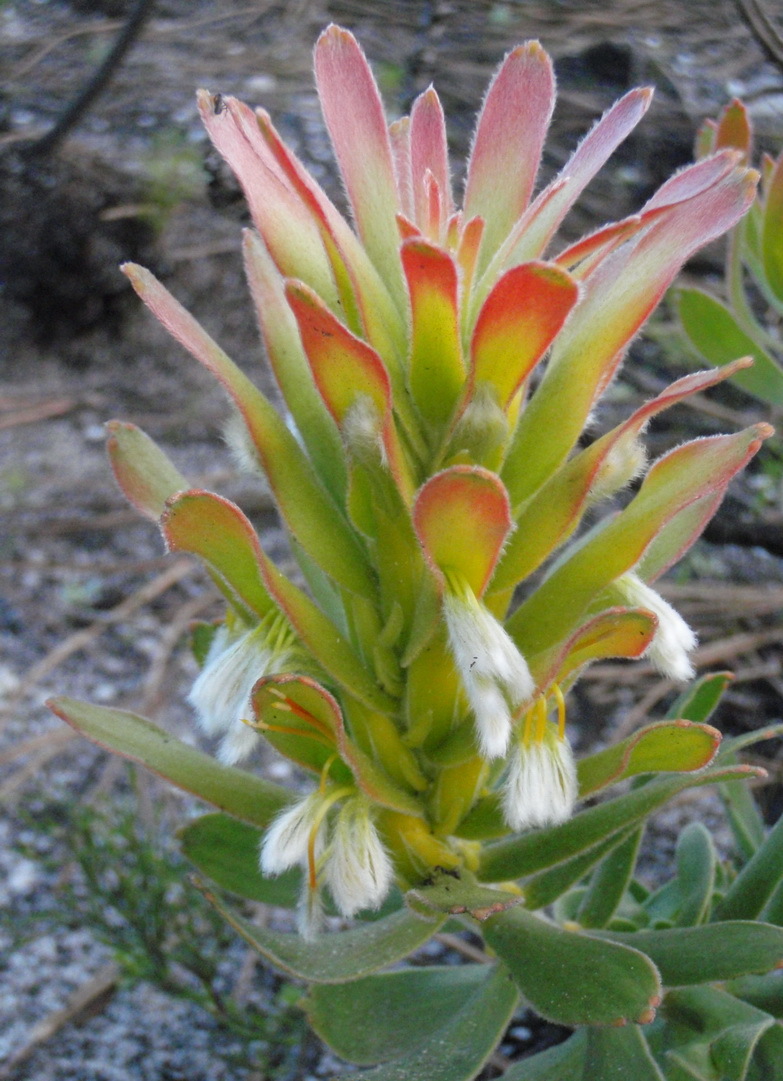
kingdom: Plantae
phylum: Tracheophyta
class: Magnoliopsida
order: Proteales
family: Proteaceae
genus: Mimetes
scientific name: Mimetes cucullatus
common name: Common pagoda
